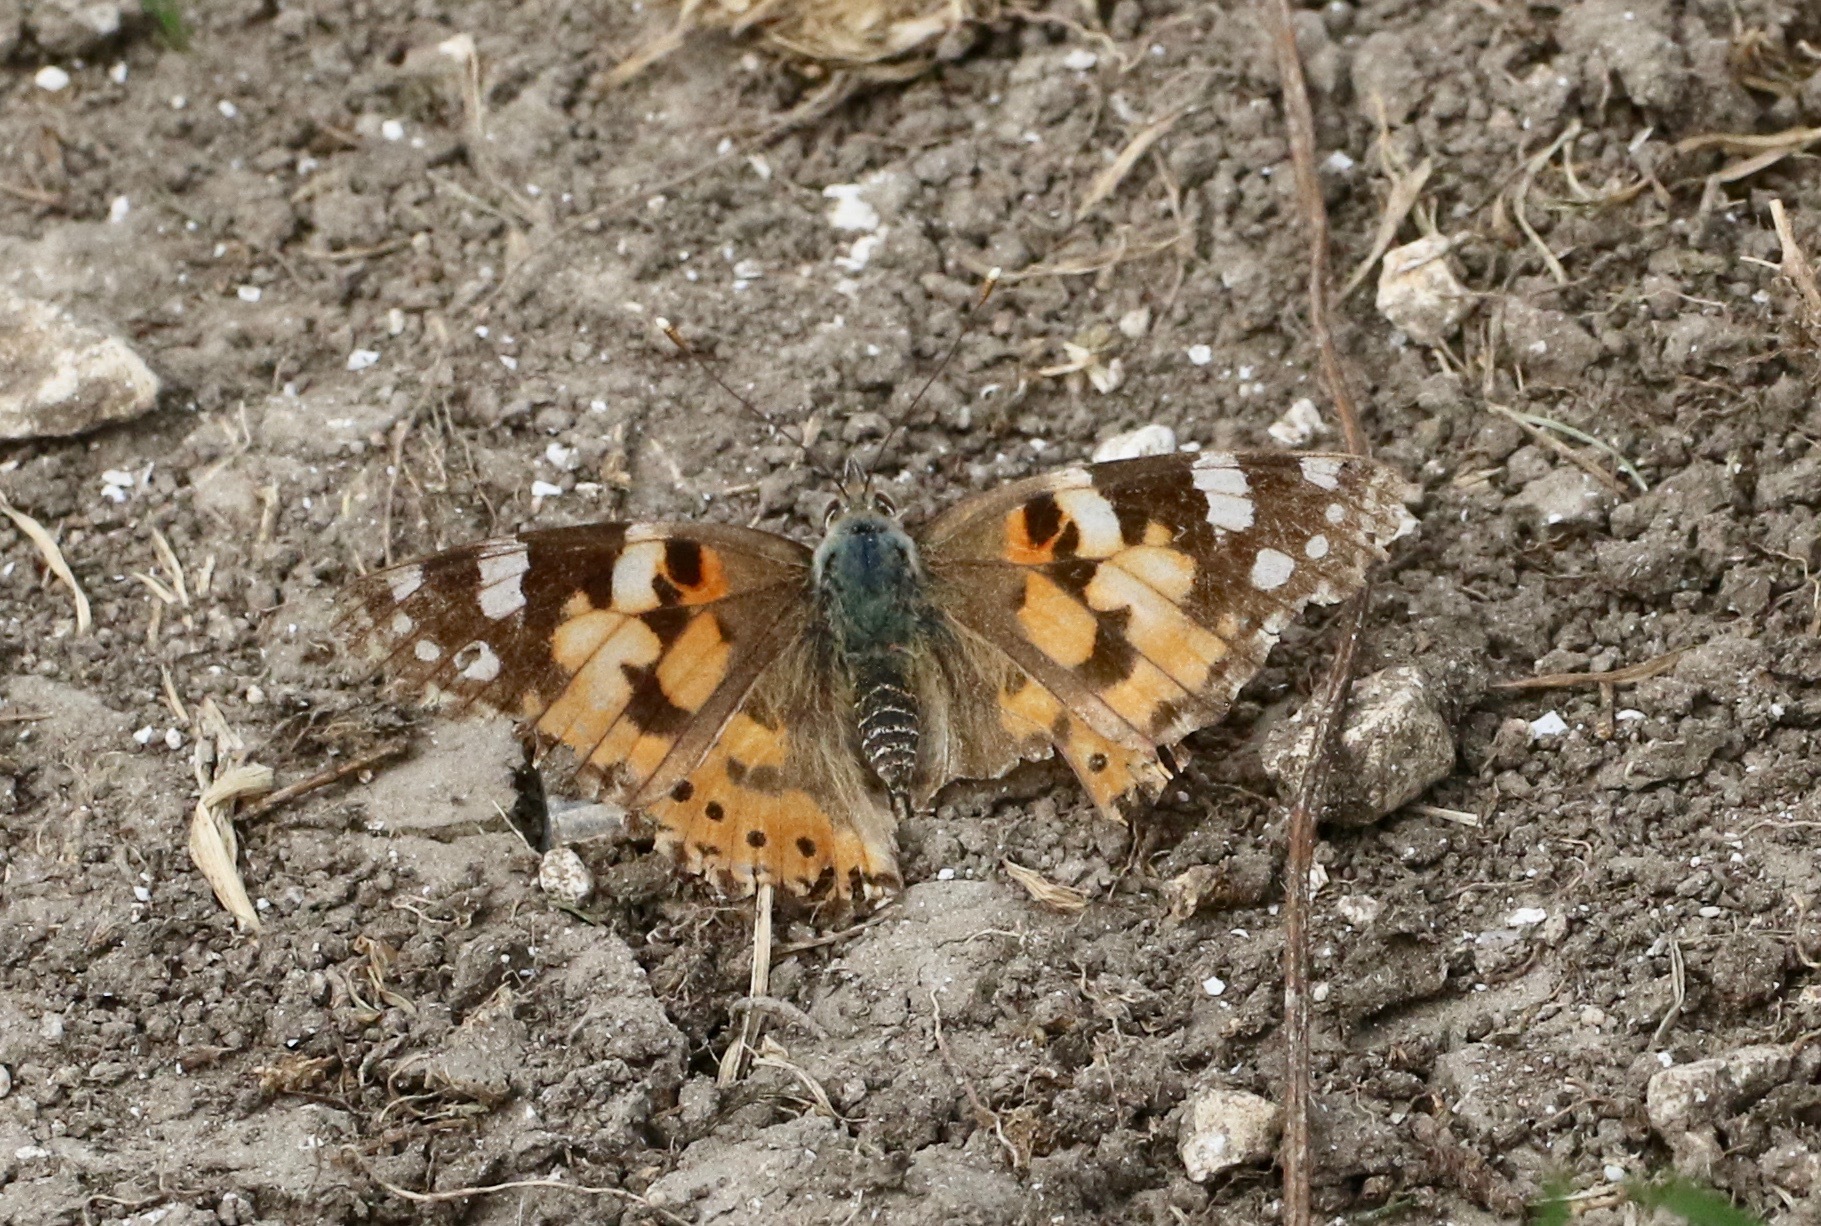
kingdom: Animalia
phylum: Arthropoda
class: Insecta
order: Lepidoptera
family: Nymphalidae
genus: Vanessa
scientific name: Vanessa cardui
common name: Painted lady
